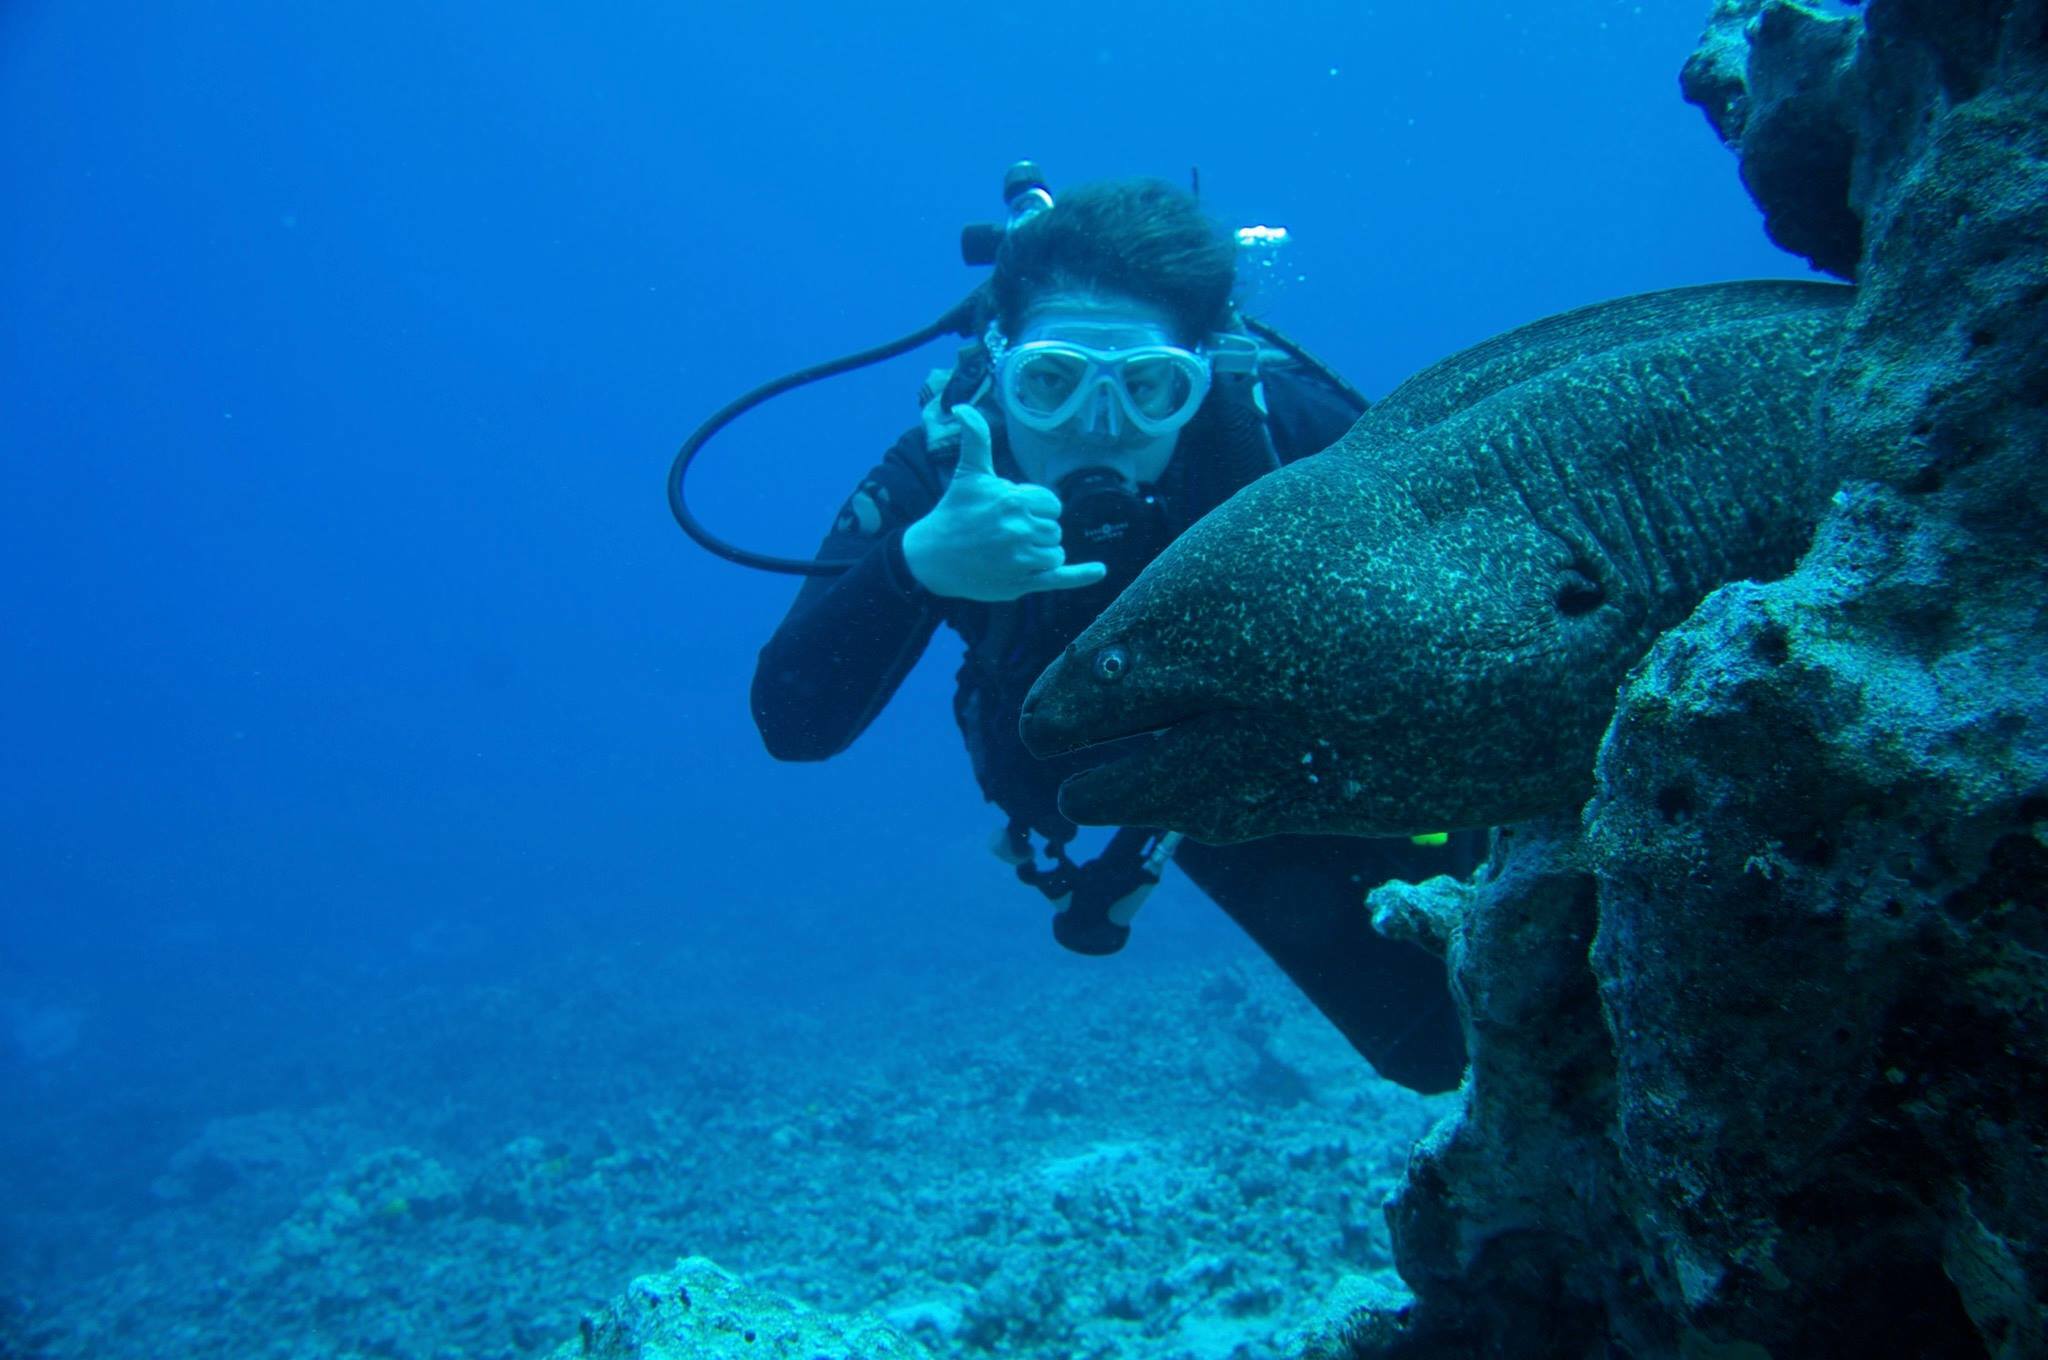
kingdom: Animalia
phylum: Chordata
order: Anguilliformes
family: Muraenidae
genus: Gymnothorax
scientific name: Gymnothorax flavimarginatus
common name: Yellow-edged moray
